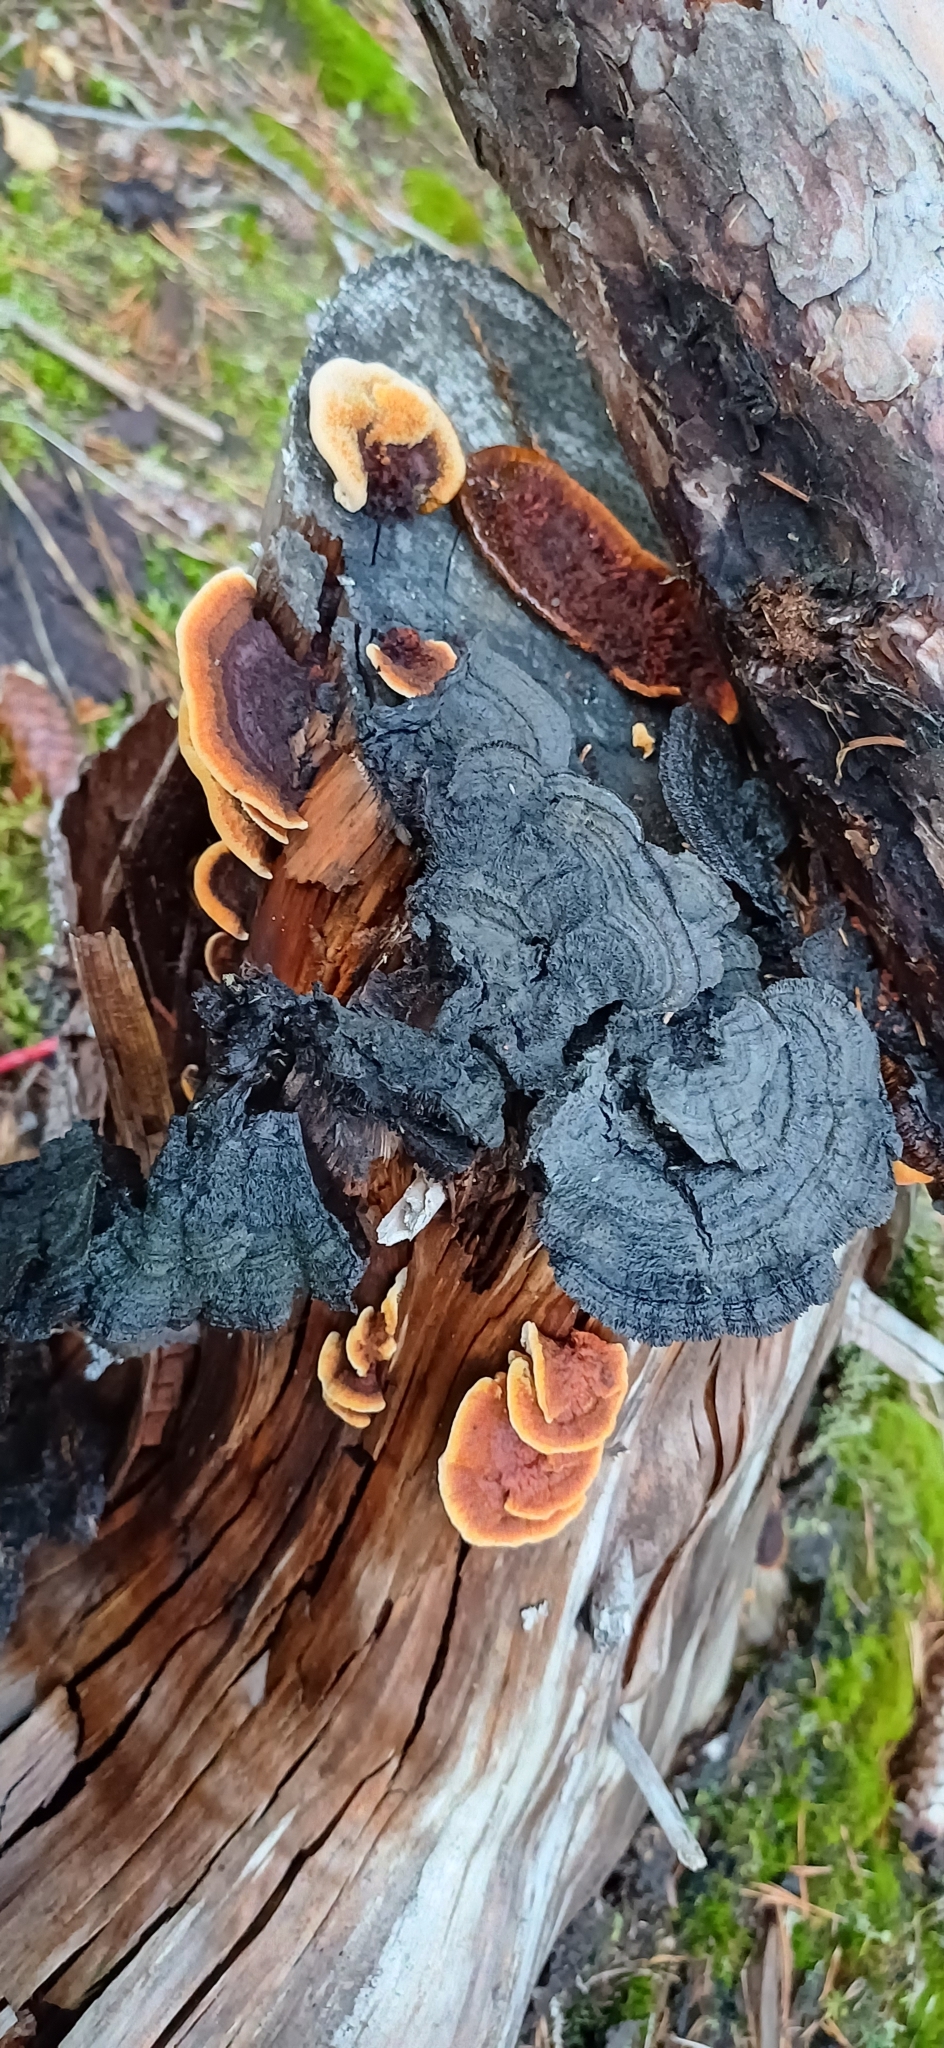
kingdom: Fungi
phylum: Basidiomycota
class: Agaricomycetes
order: Gloeophyllales
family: Gloeophyllaceae
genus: Gloeophyllum
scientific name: Gloeophyllum sepiarium
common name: Conifer mazegill
